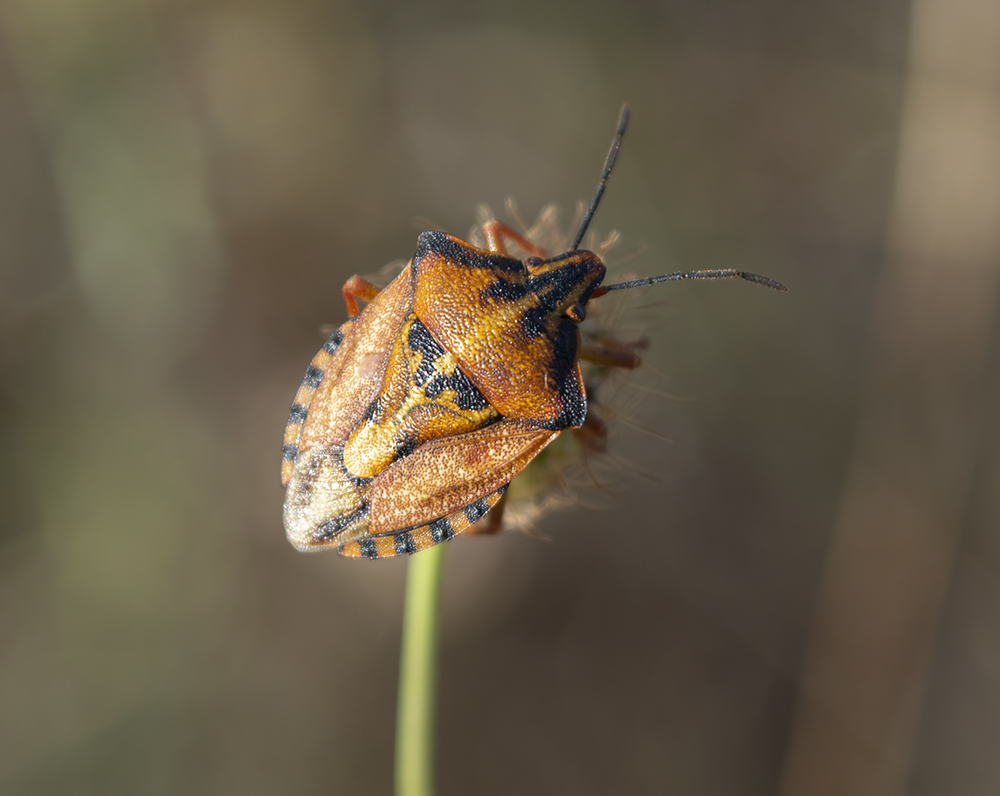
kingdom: Animalia
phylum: Arthropoda
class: Insecta
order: Hemiptera
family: Pentatomidae
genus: Carpocoris
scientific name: Carpocoris mediterraneus
